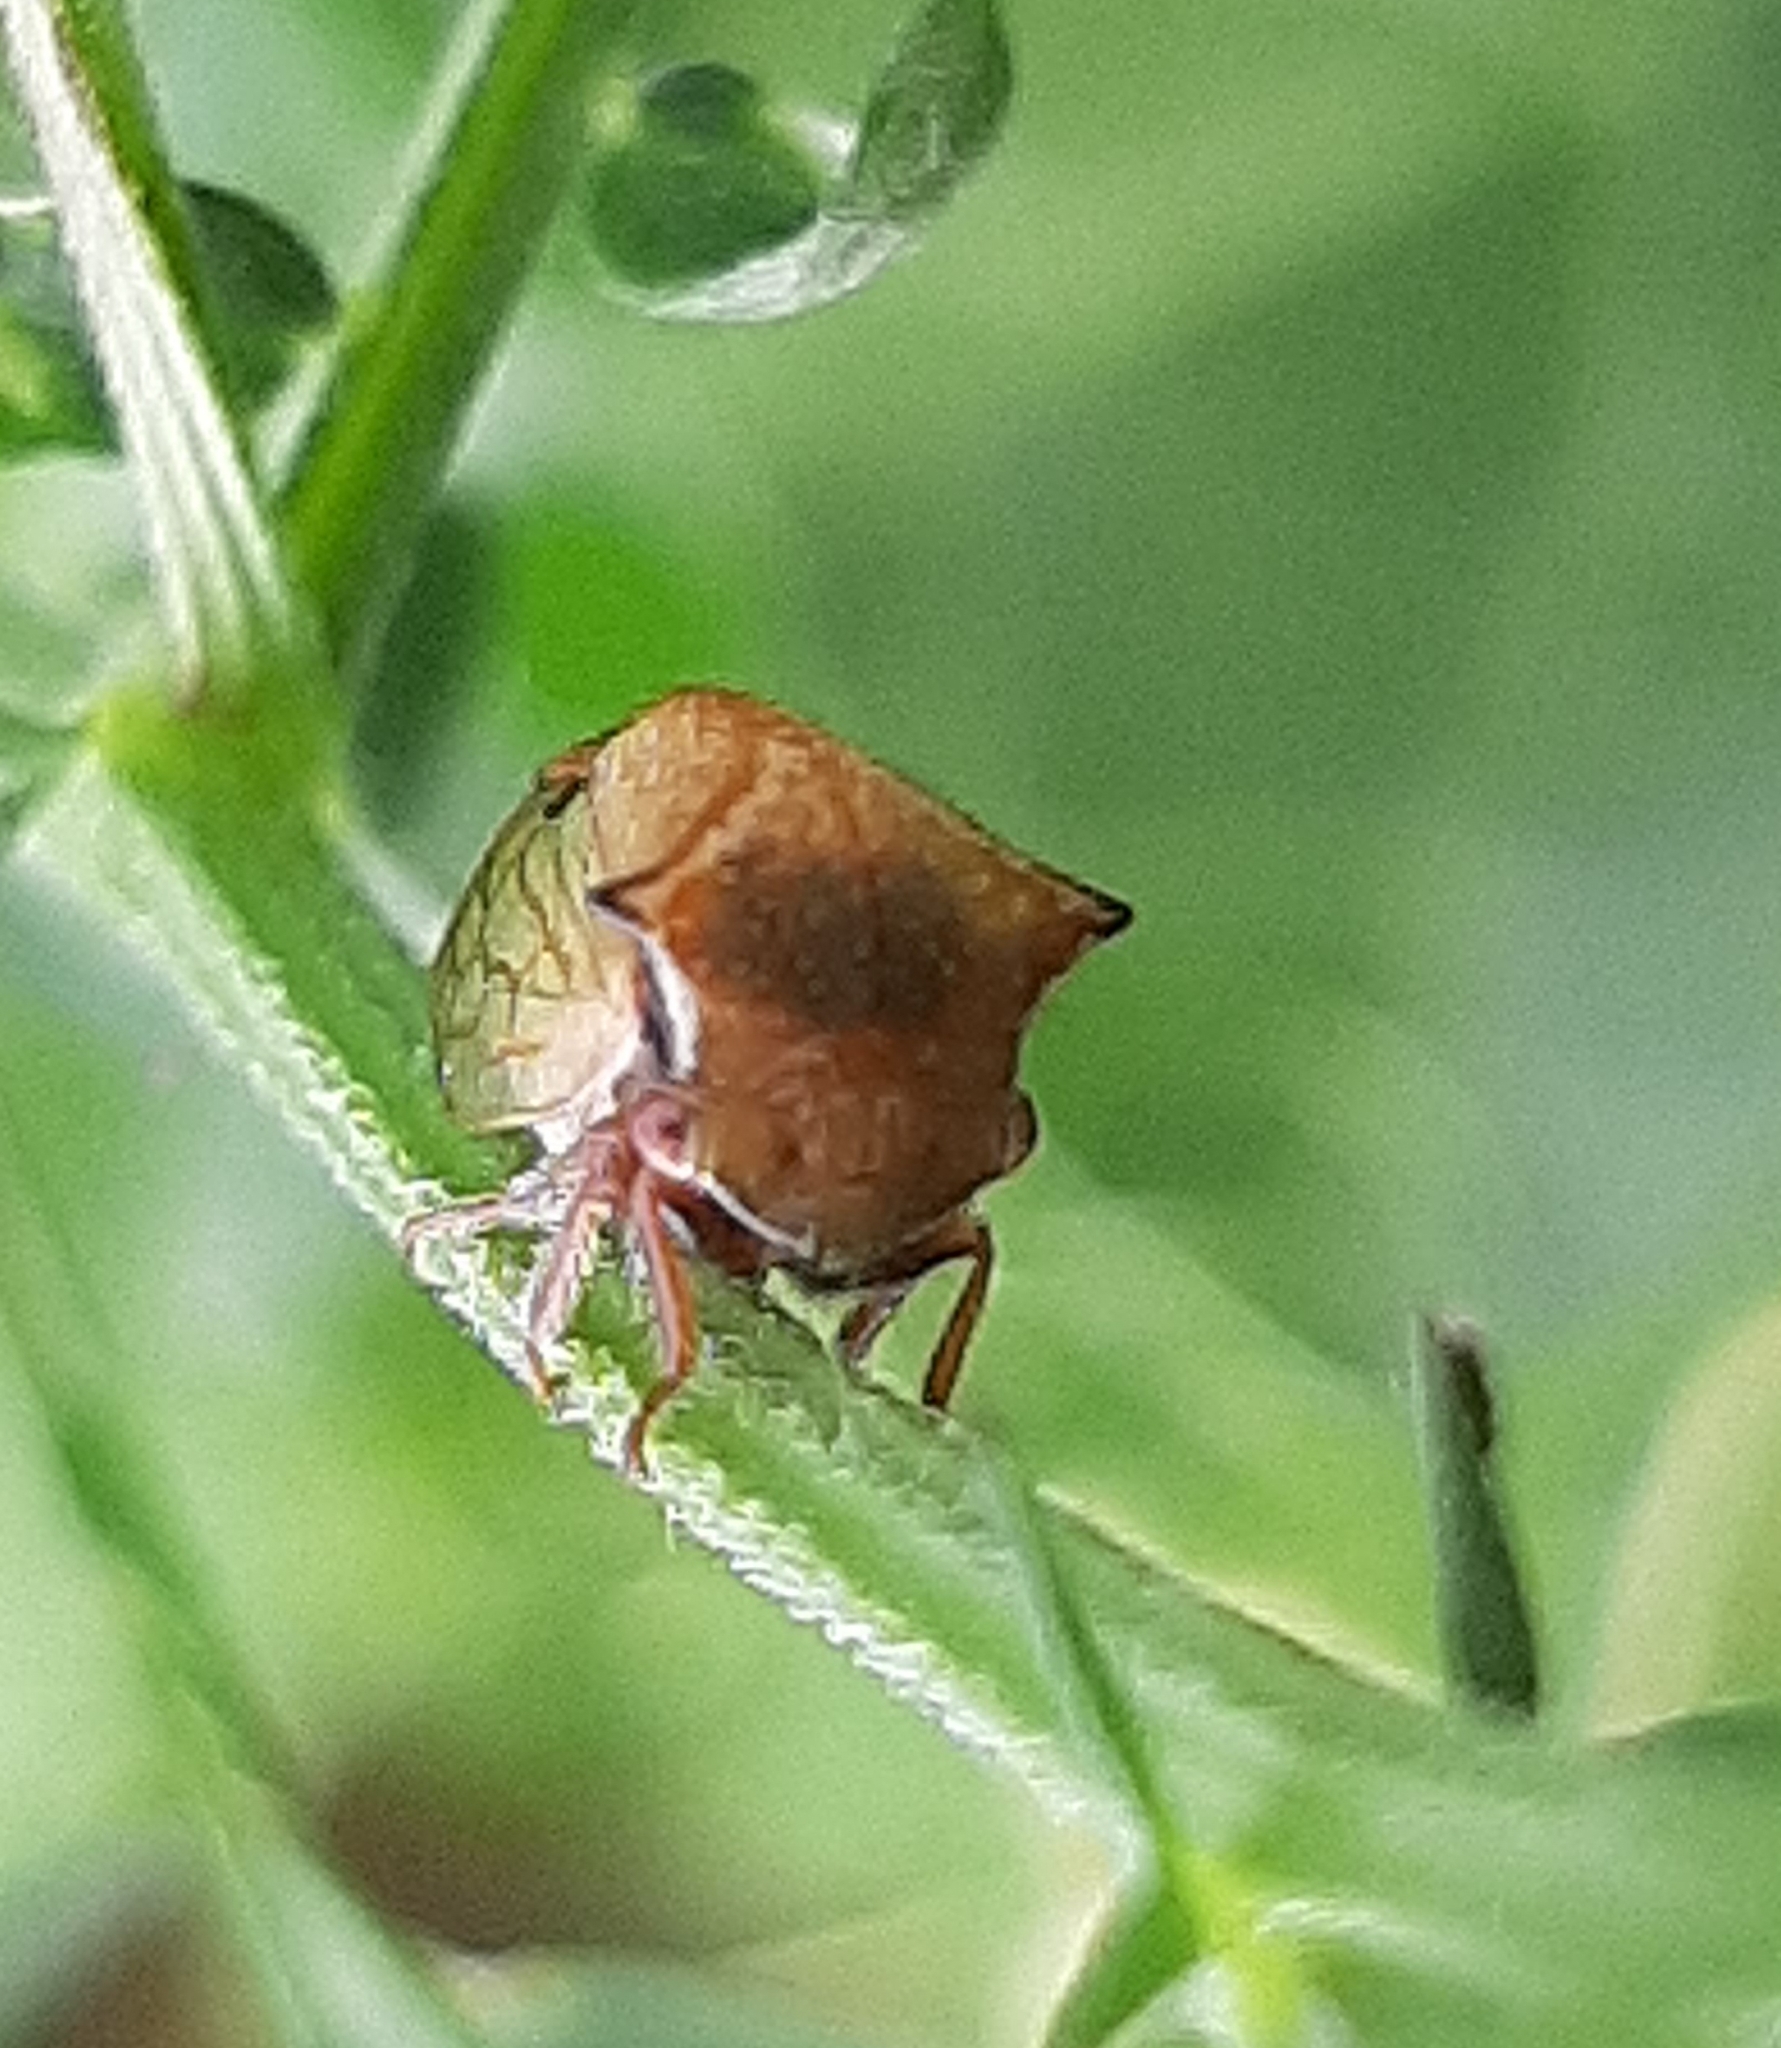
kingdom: Animalia
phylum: Arthropoda
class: Insecta
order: Hemiptera
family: Membracidae
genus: Stictocephala
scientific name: Stictocephala basalis
